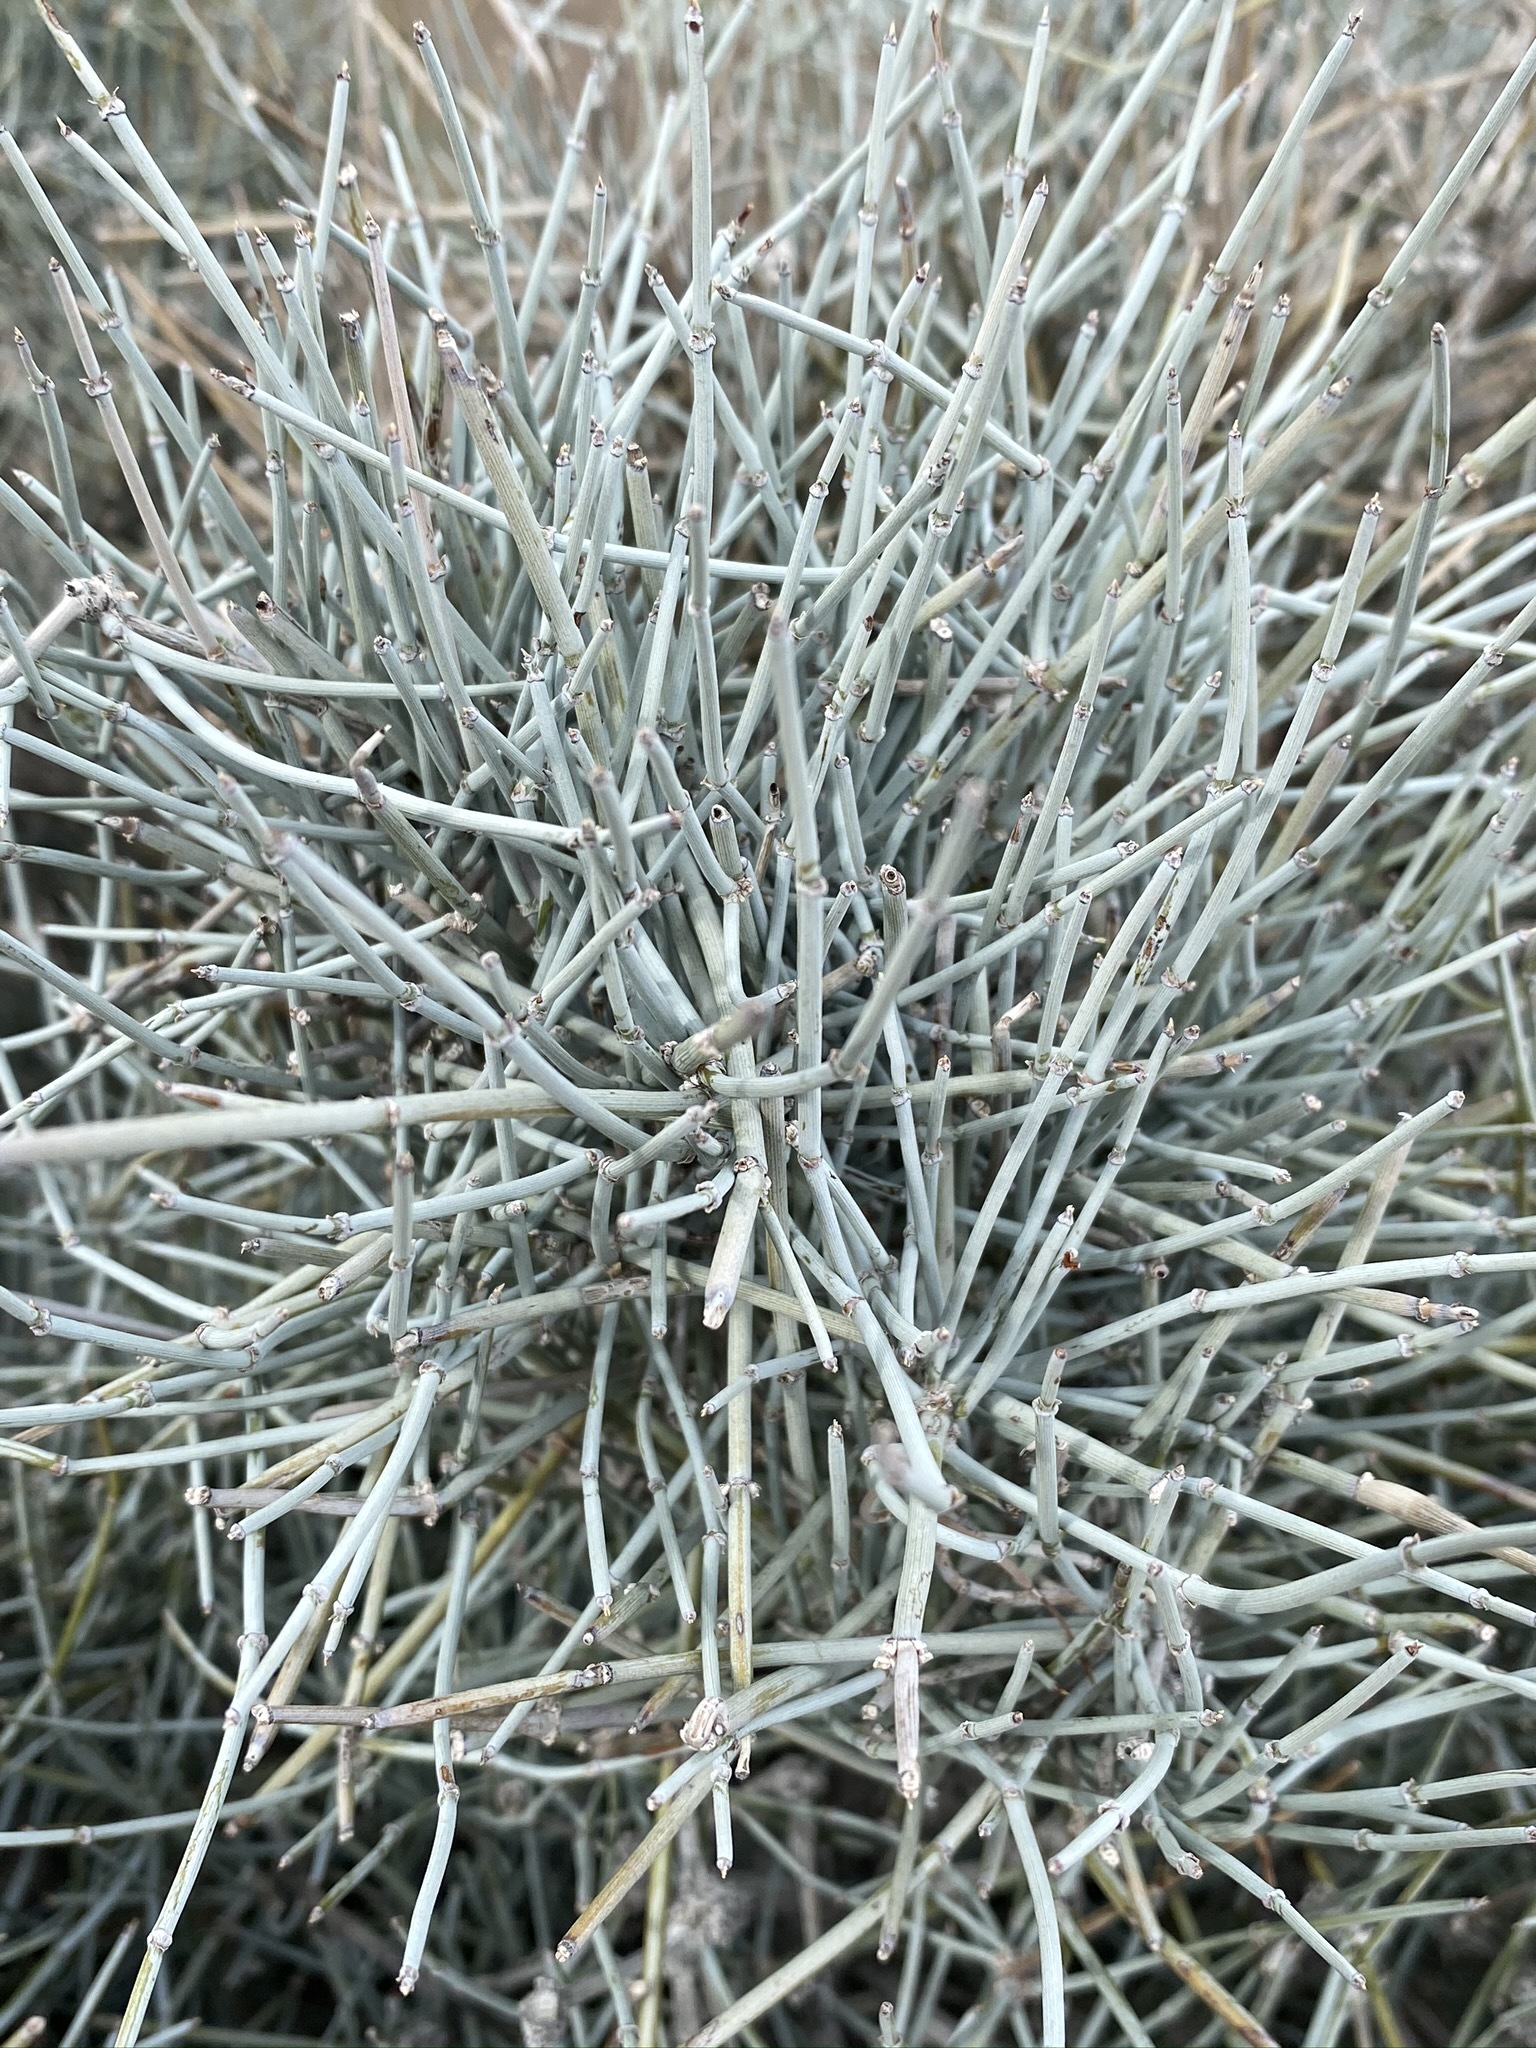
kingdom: Plantae
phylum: Tracheophyta
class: Gnetopsida
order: Ephedrales
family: Ephedraceae
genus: Ephedra
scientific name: Ephedra aspera
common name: Boundary ephedra
